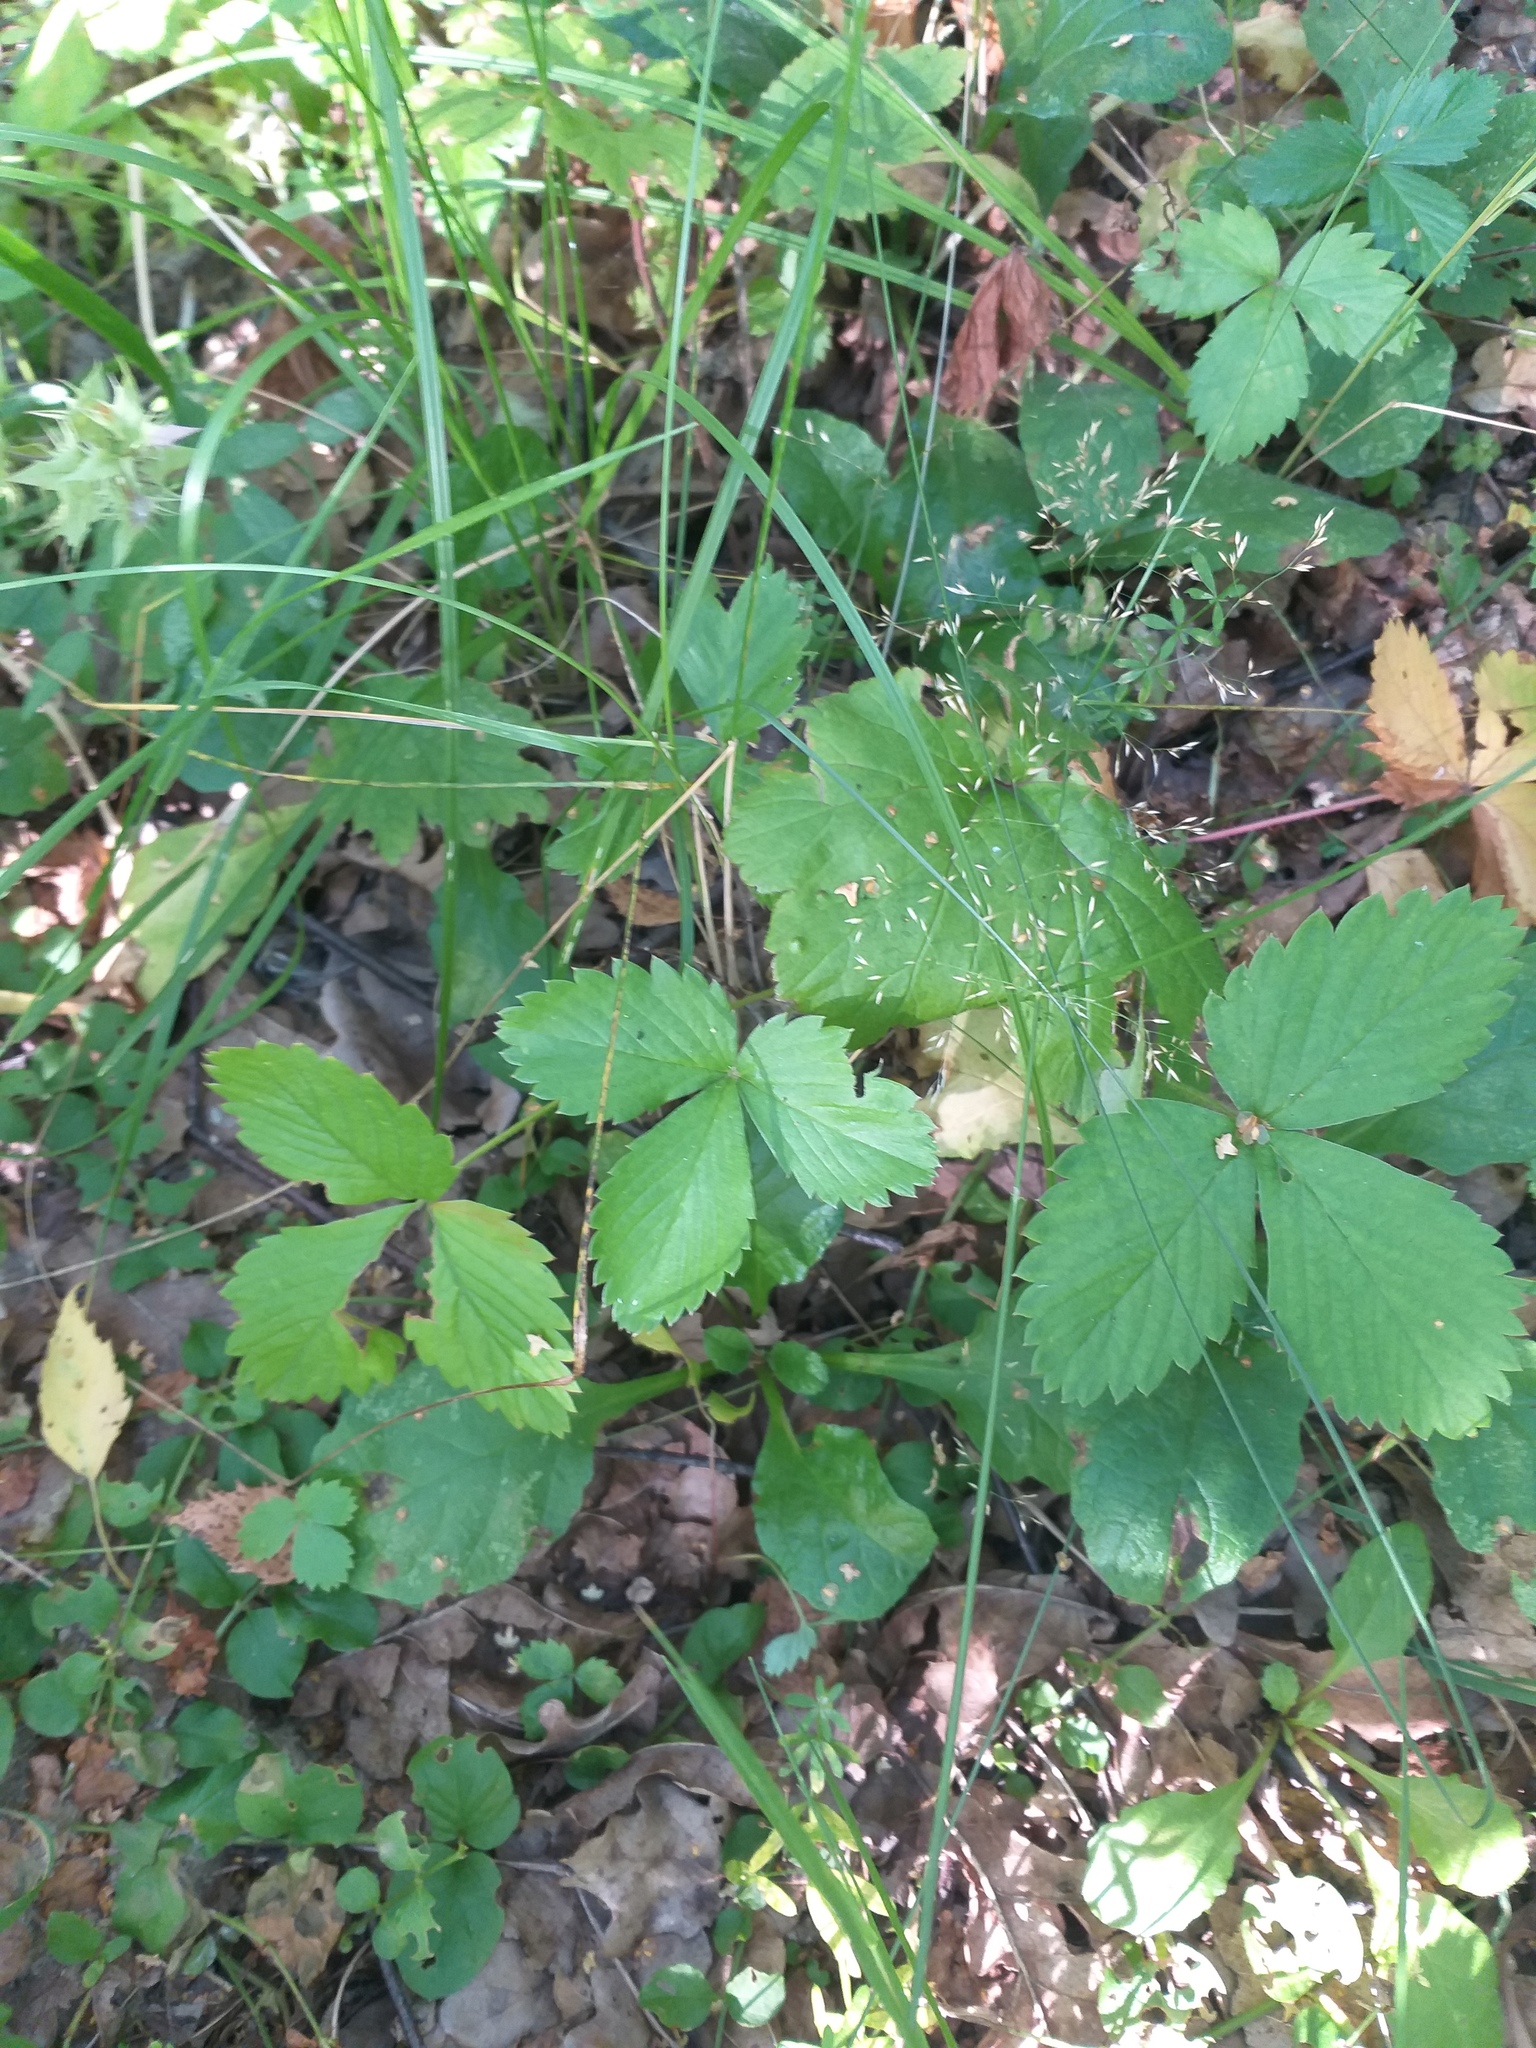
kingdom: Plantae
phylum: Tracheophyta
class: Magnoliopsida
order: Rosales
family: Rosaceae
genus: Fragaria
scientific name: Fragaria vesca
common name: Wild strawberry
